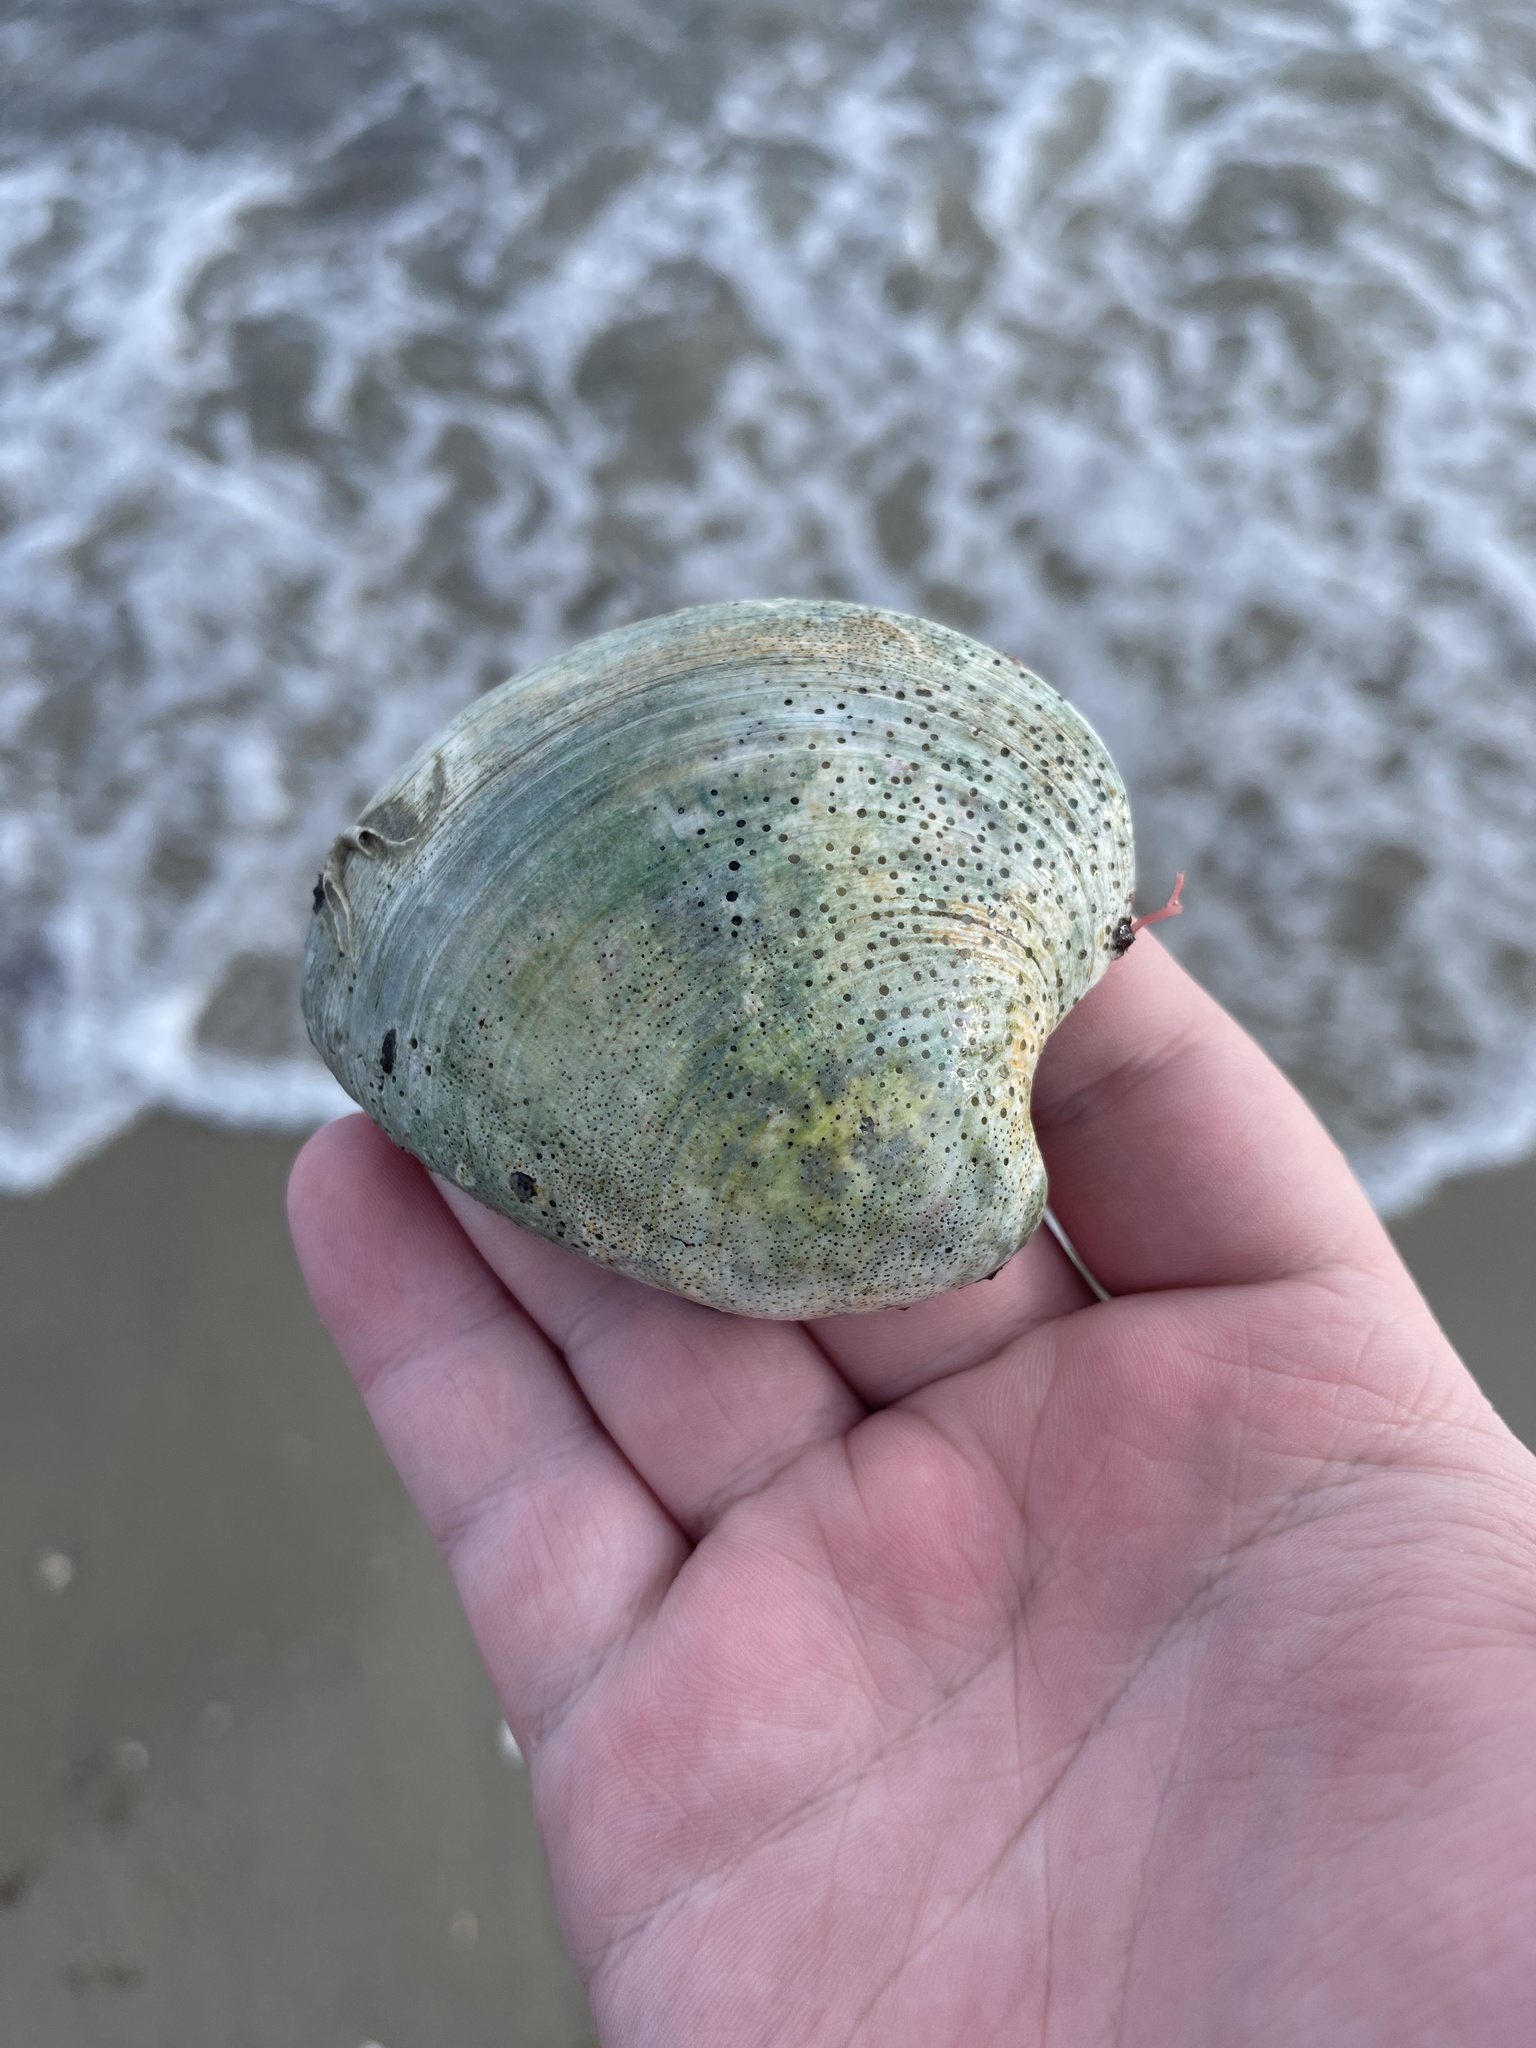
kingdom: Animalia
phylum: Mollusca
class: Bivalvia
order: Venerida
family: Veneridae
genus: Mercenaria
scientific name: Mercenaria mercenaria
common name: American hard-shelled clam
